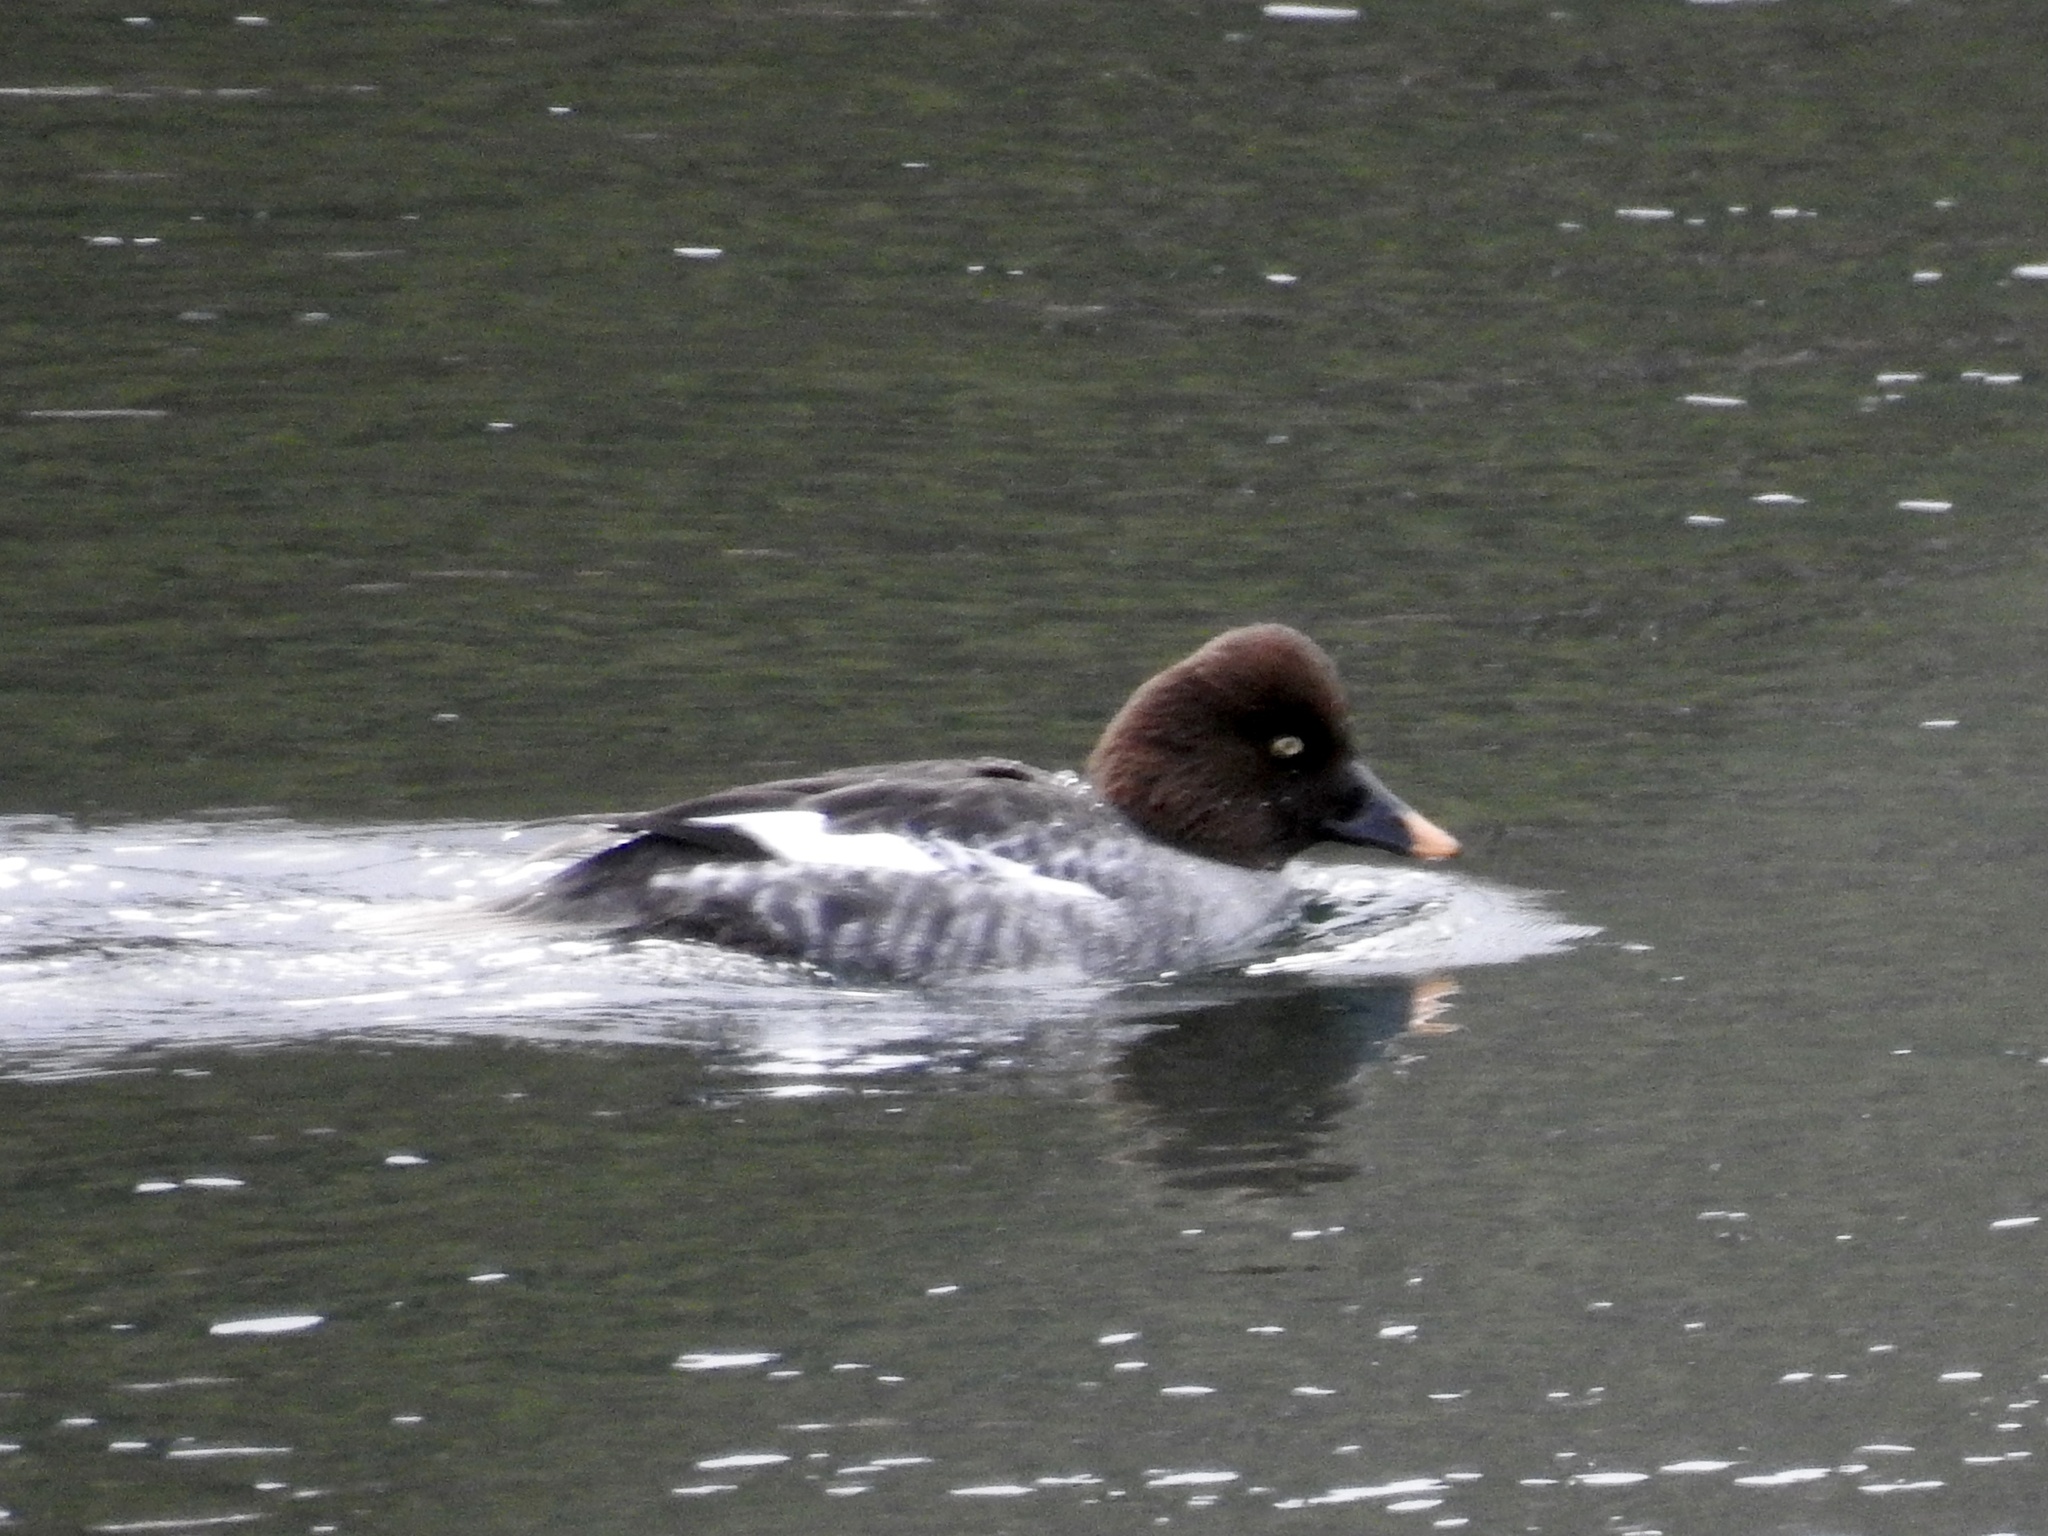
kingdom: Animalia
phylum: Chordata
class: Aves
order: Anseriformes
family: Anatidae
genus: Bucephala
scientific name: Bucephala clangula
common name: Common goldeneye
